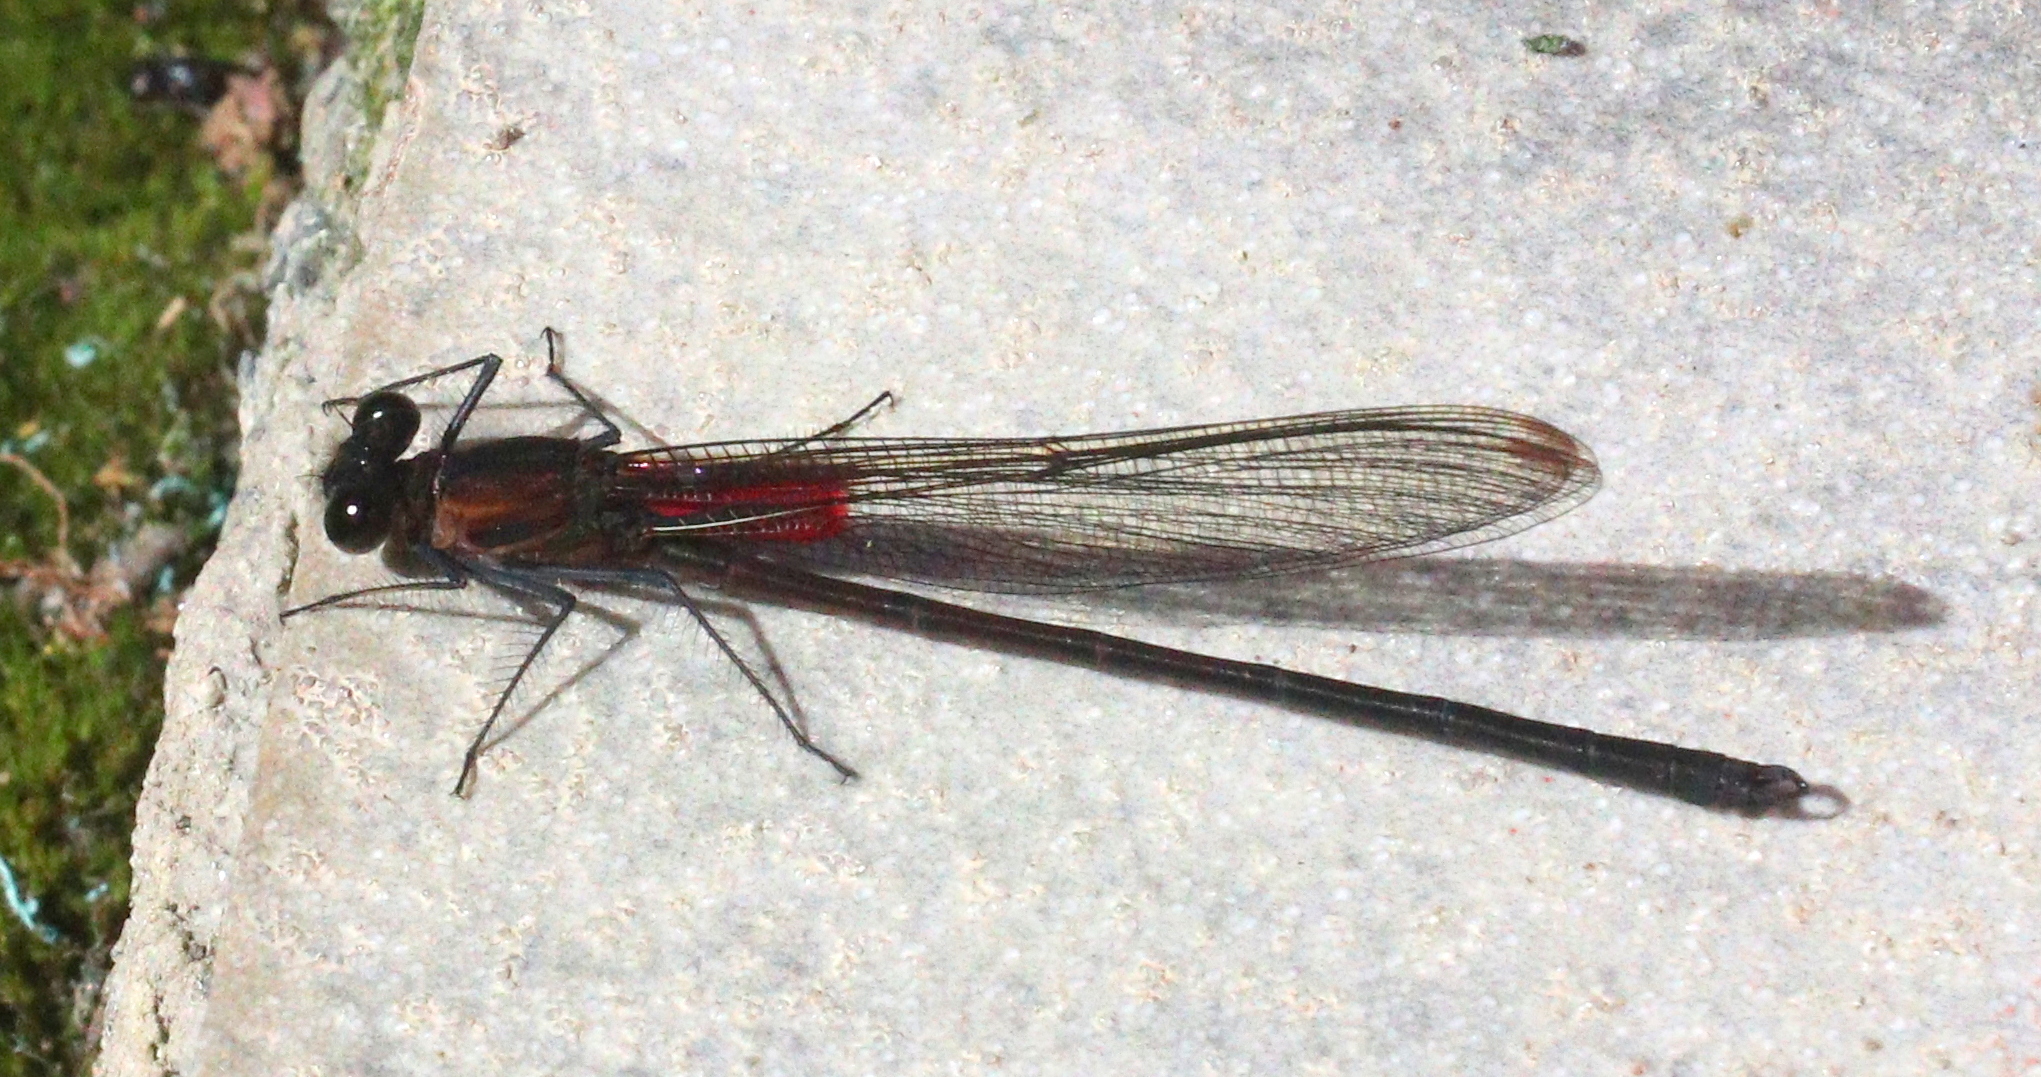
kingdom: Animalia
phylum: Arthropoda
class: Insecta
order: Odonata
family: Calopterygidae
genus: Hetaerina
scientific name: Hetaerina cruentata
